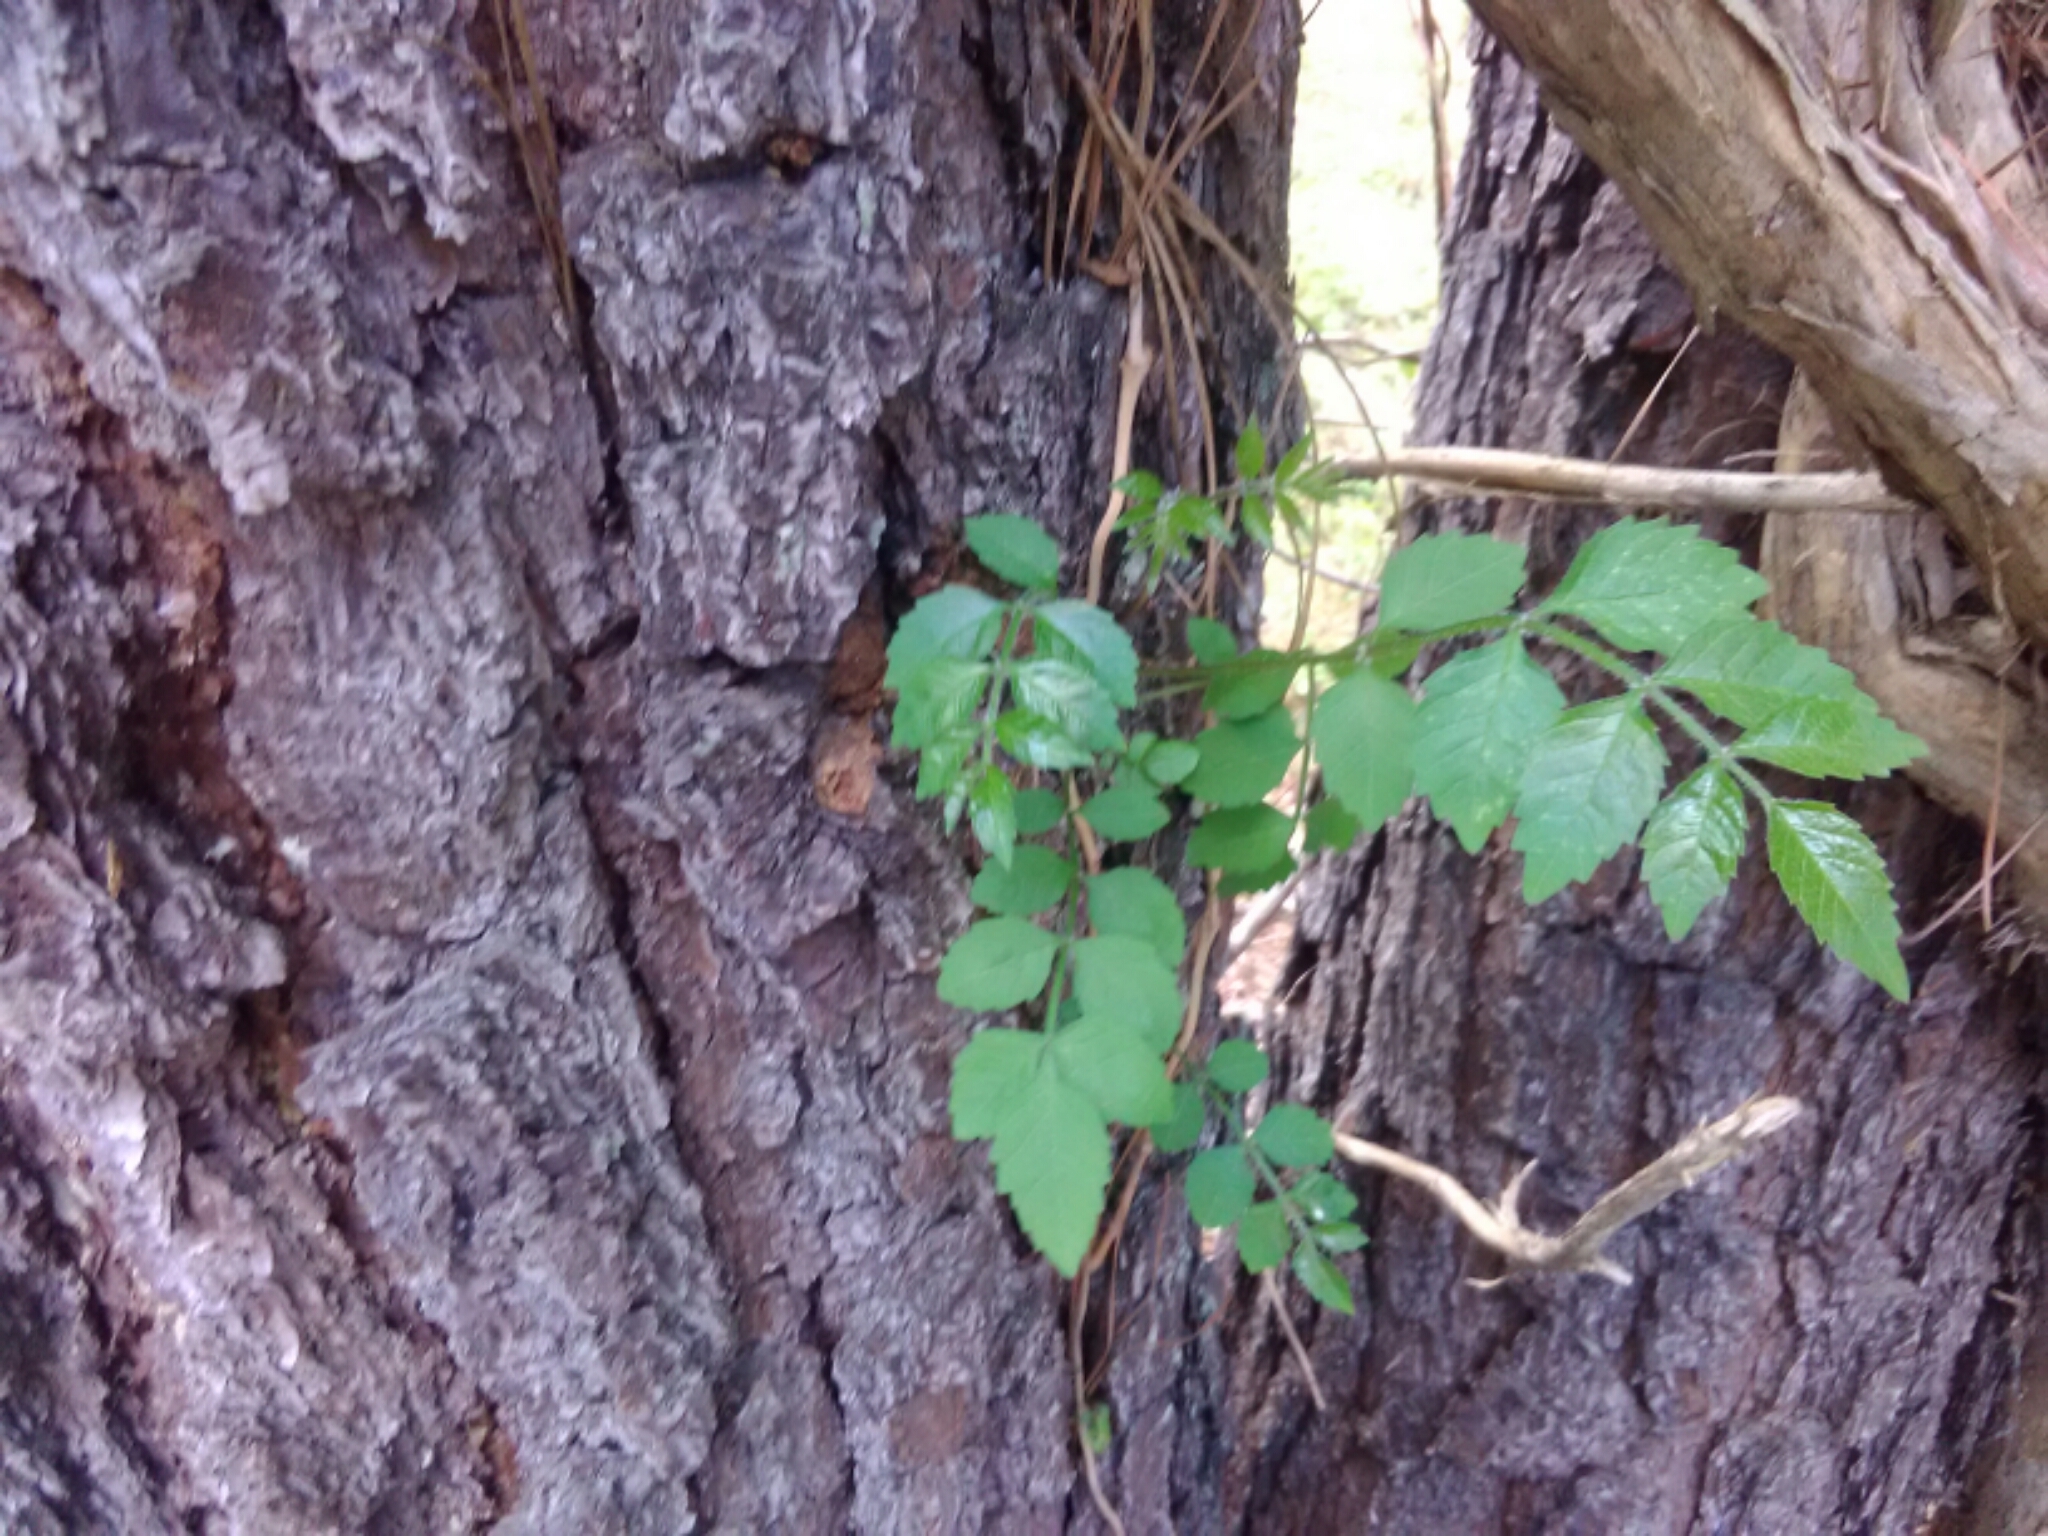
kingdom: Plantae
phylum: Tracheophyta
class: Magnoliopsida
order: Lamiales
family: Bignoniaceae
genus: Campsis
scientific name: Campsis radicans
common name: Trumpet-creeper
